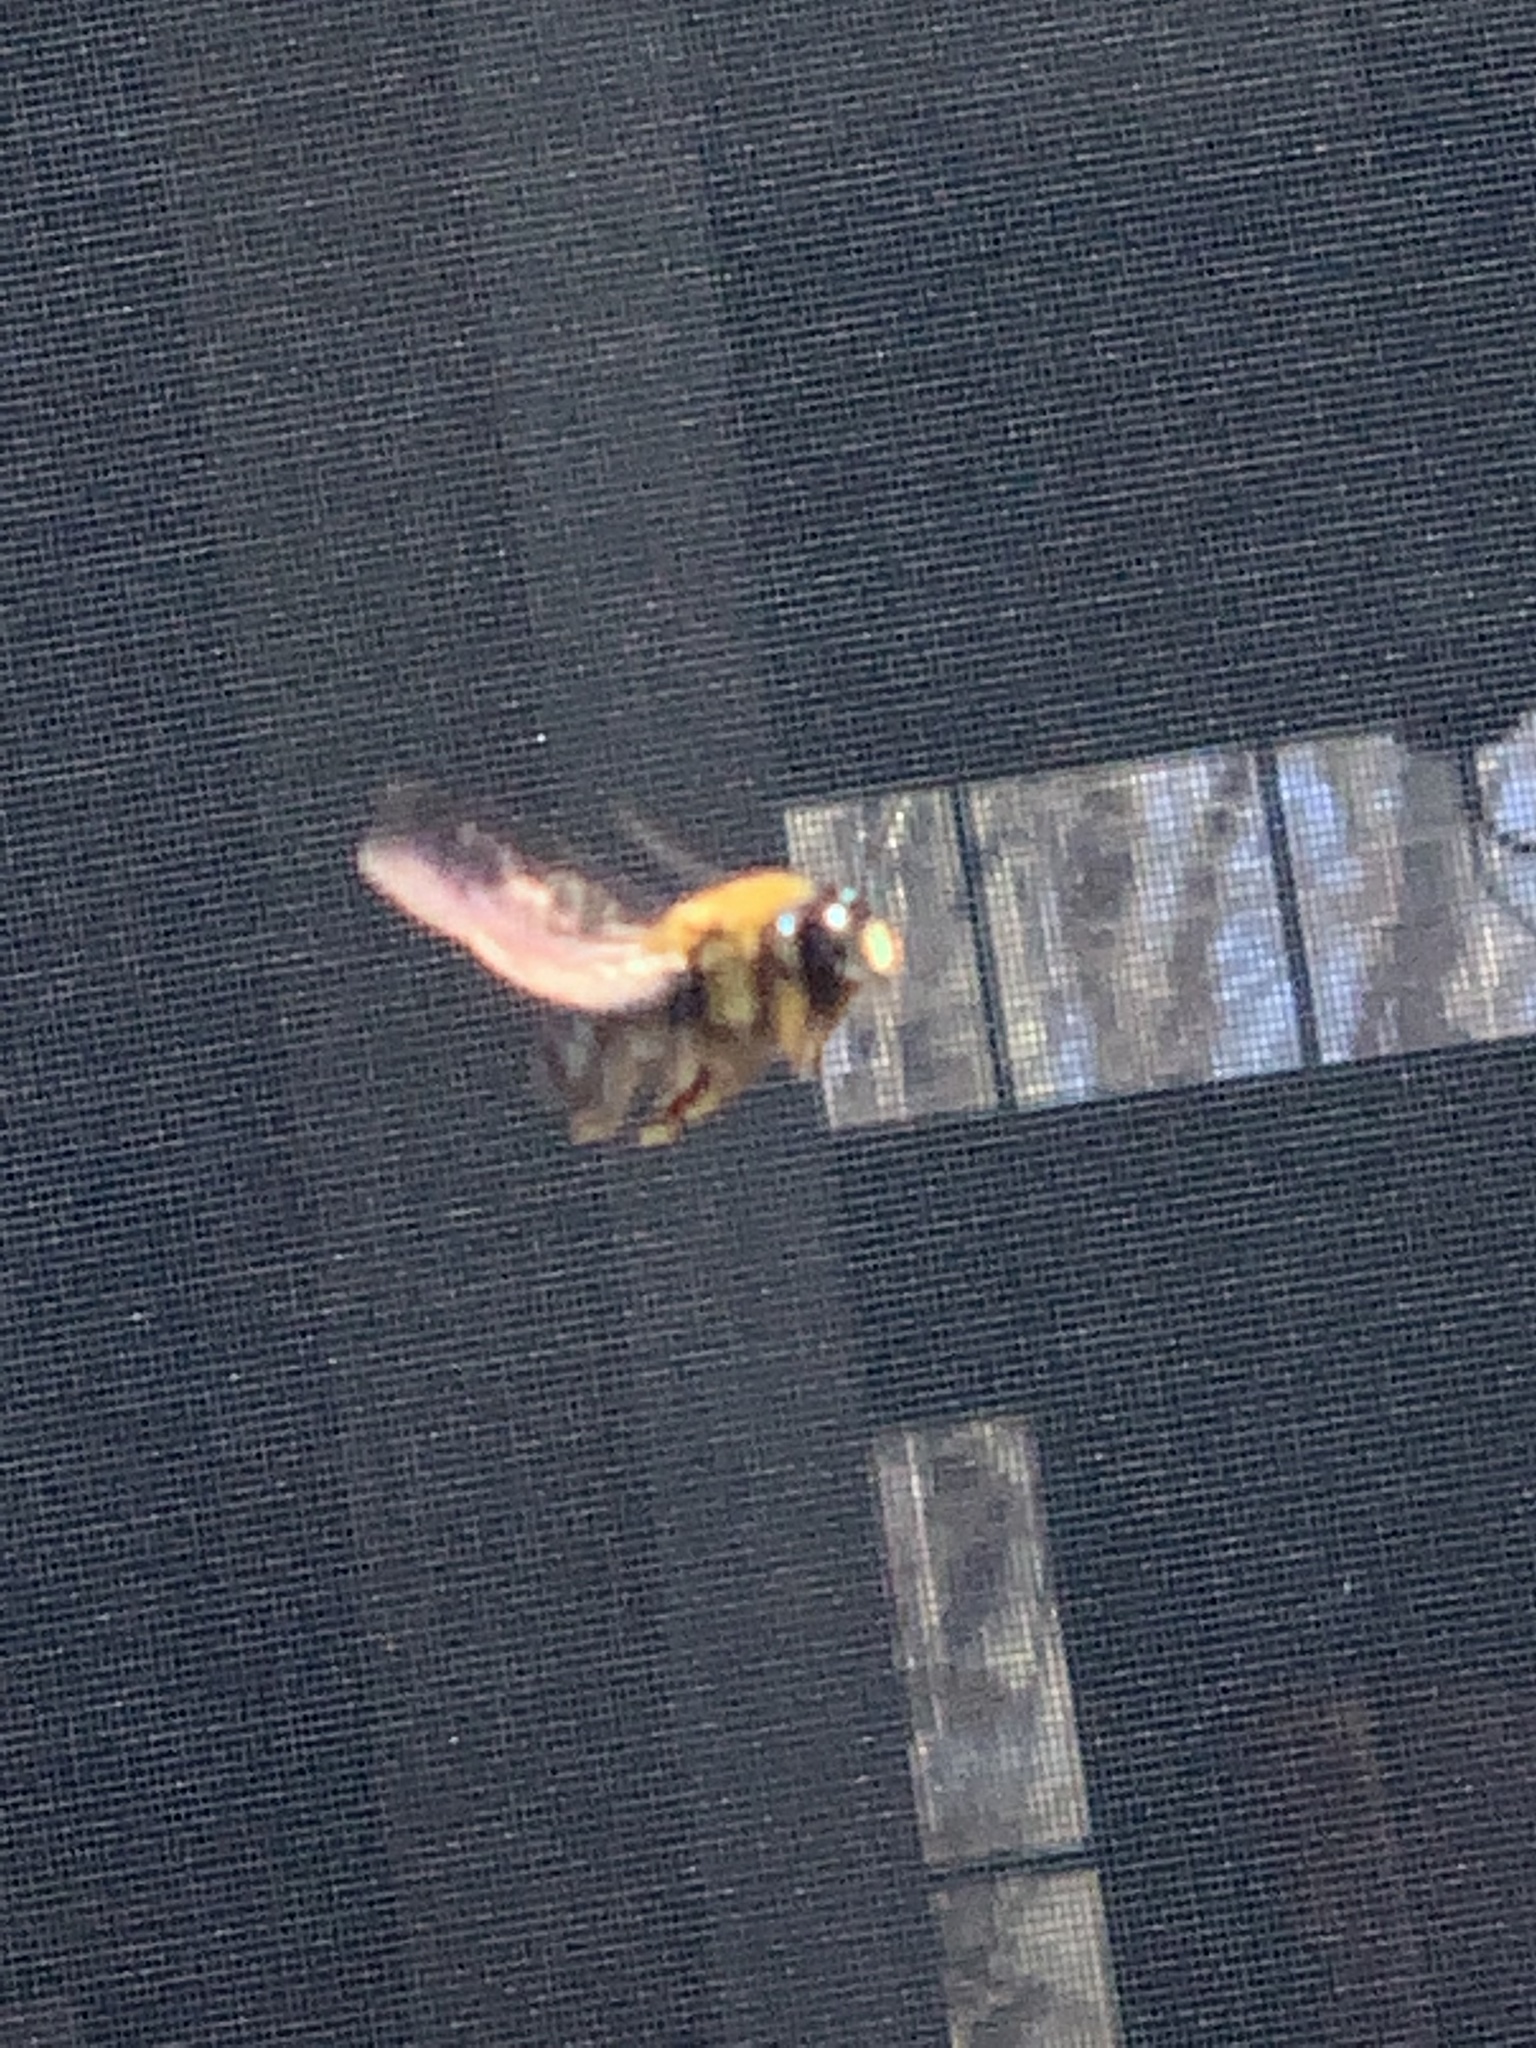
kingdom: Animalia
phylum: Arthropoda
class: Insecta
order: Hymenoptera
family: Apidae
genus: Xylocopa
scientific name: Xylocopa virginica
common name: Carpenter bee
